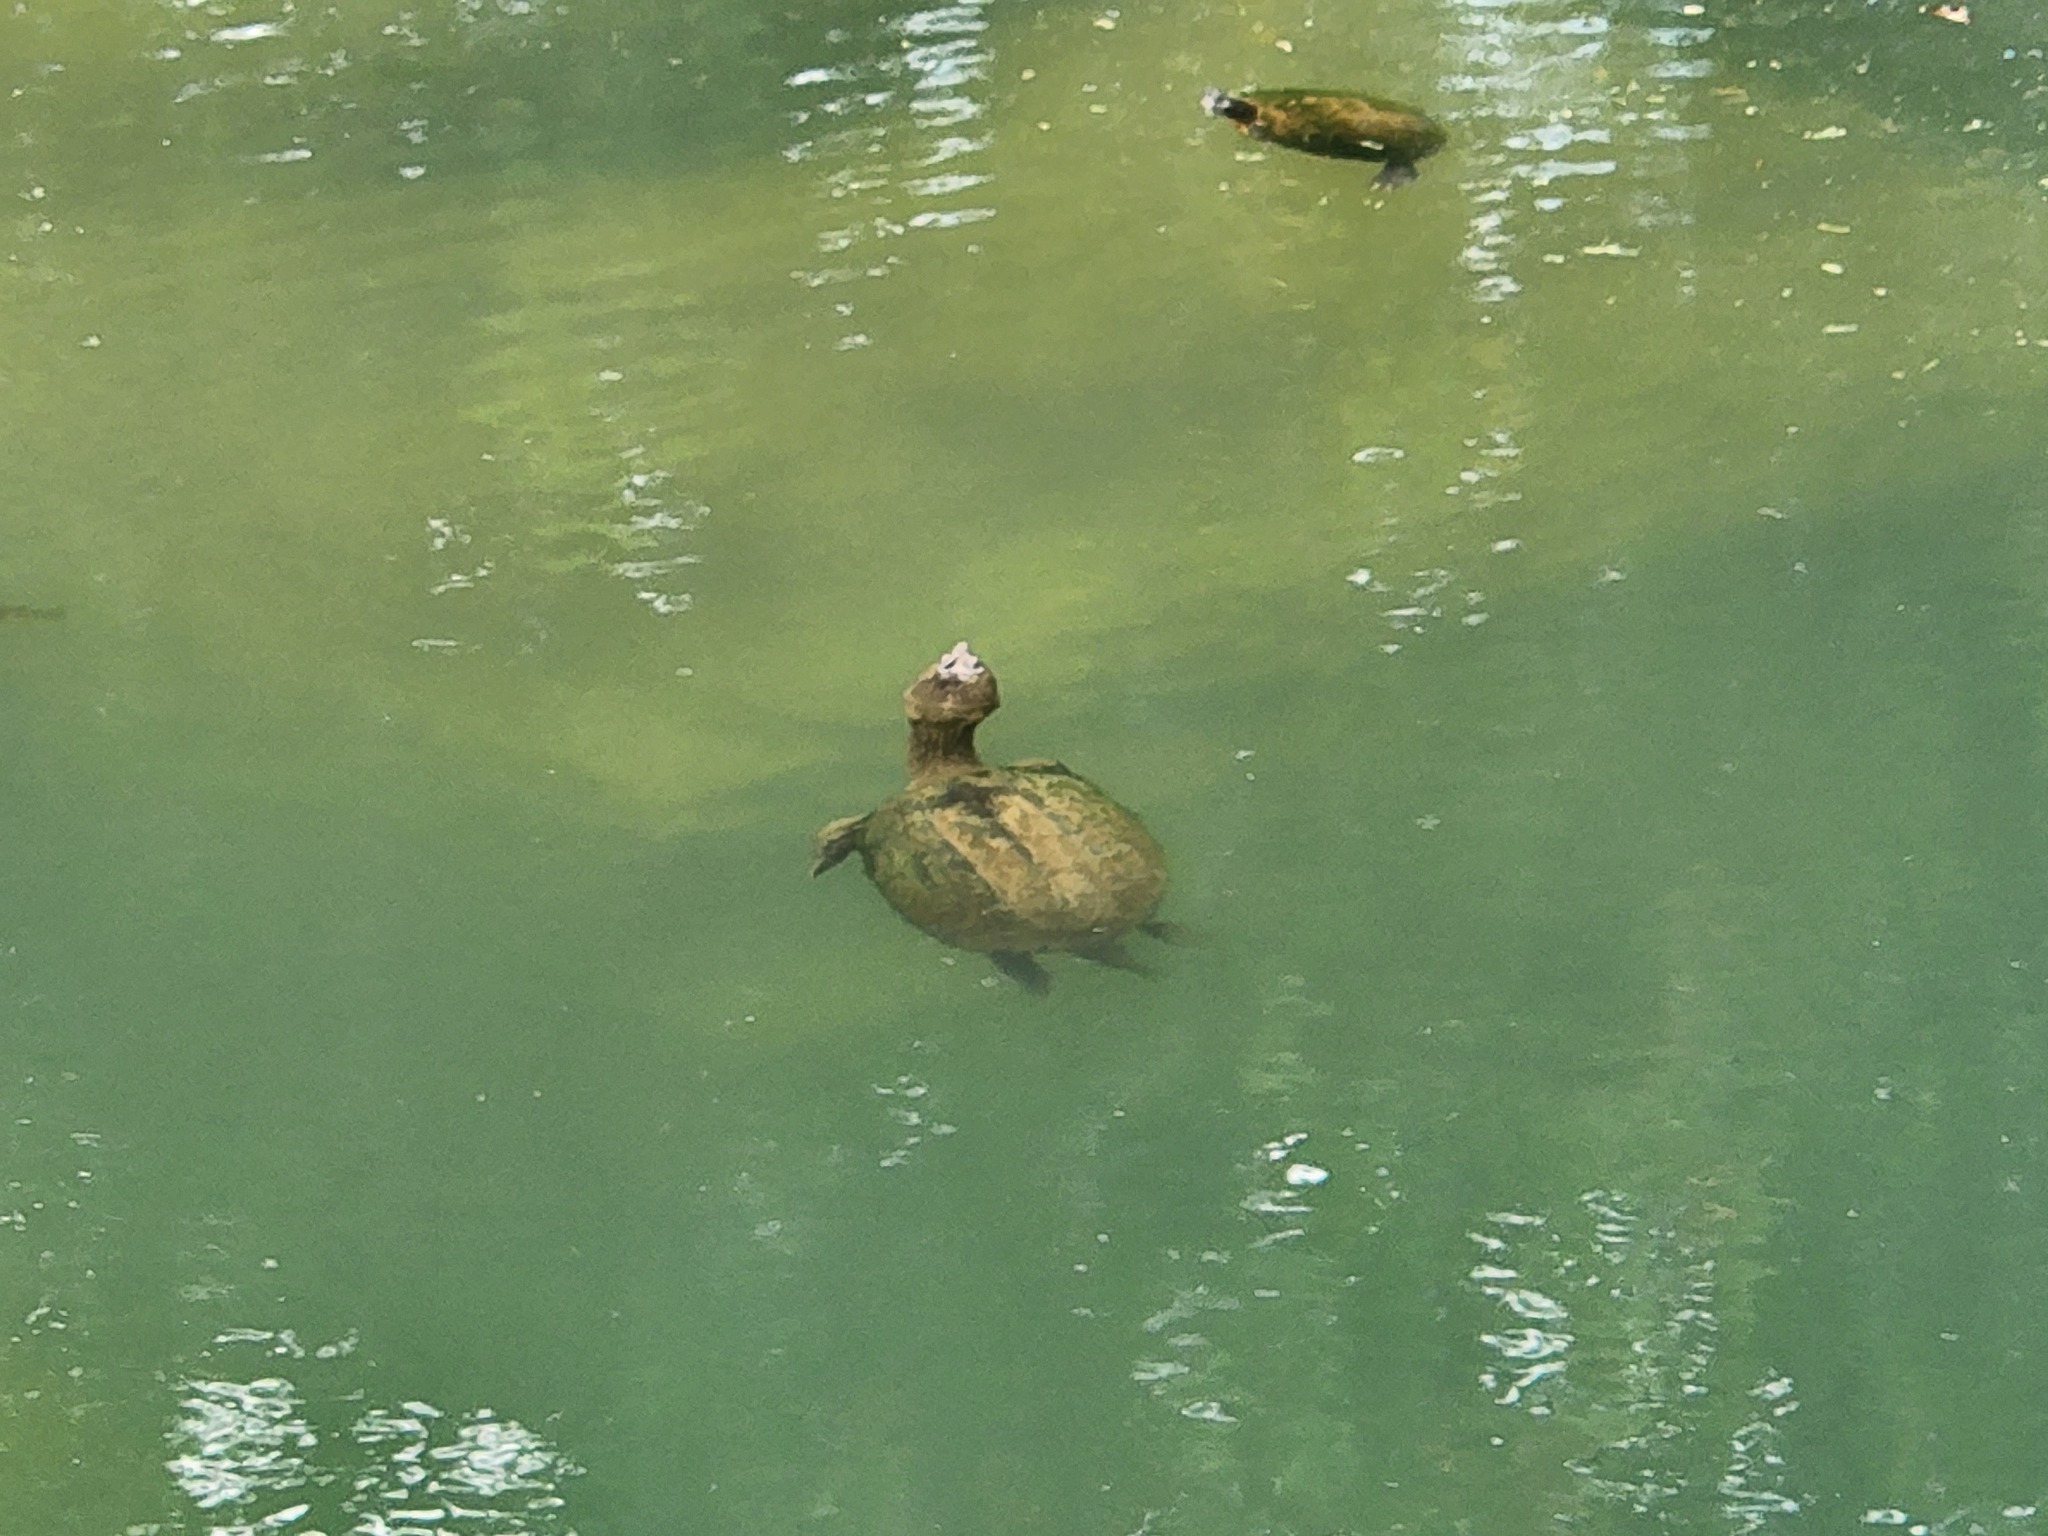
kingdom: Animalia
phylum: Chordata
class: Testudines
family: Chelydridae
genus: Chelydra
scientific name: Chelydra serpentina
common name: Common snapping turtle
